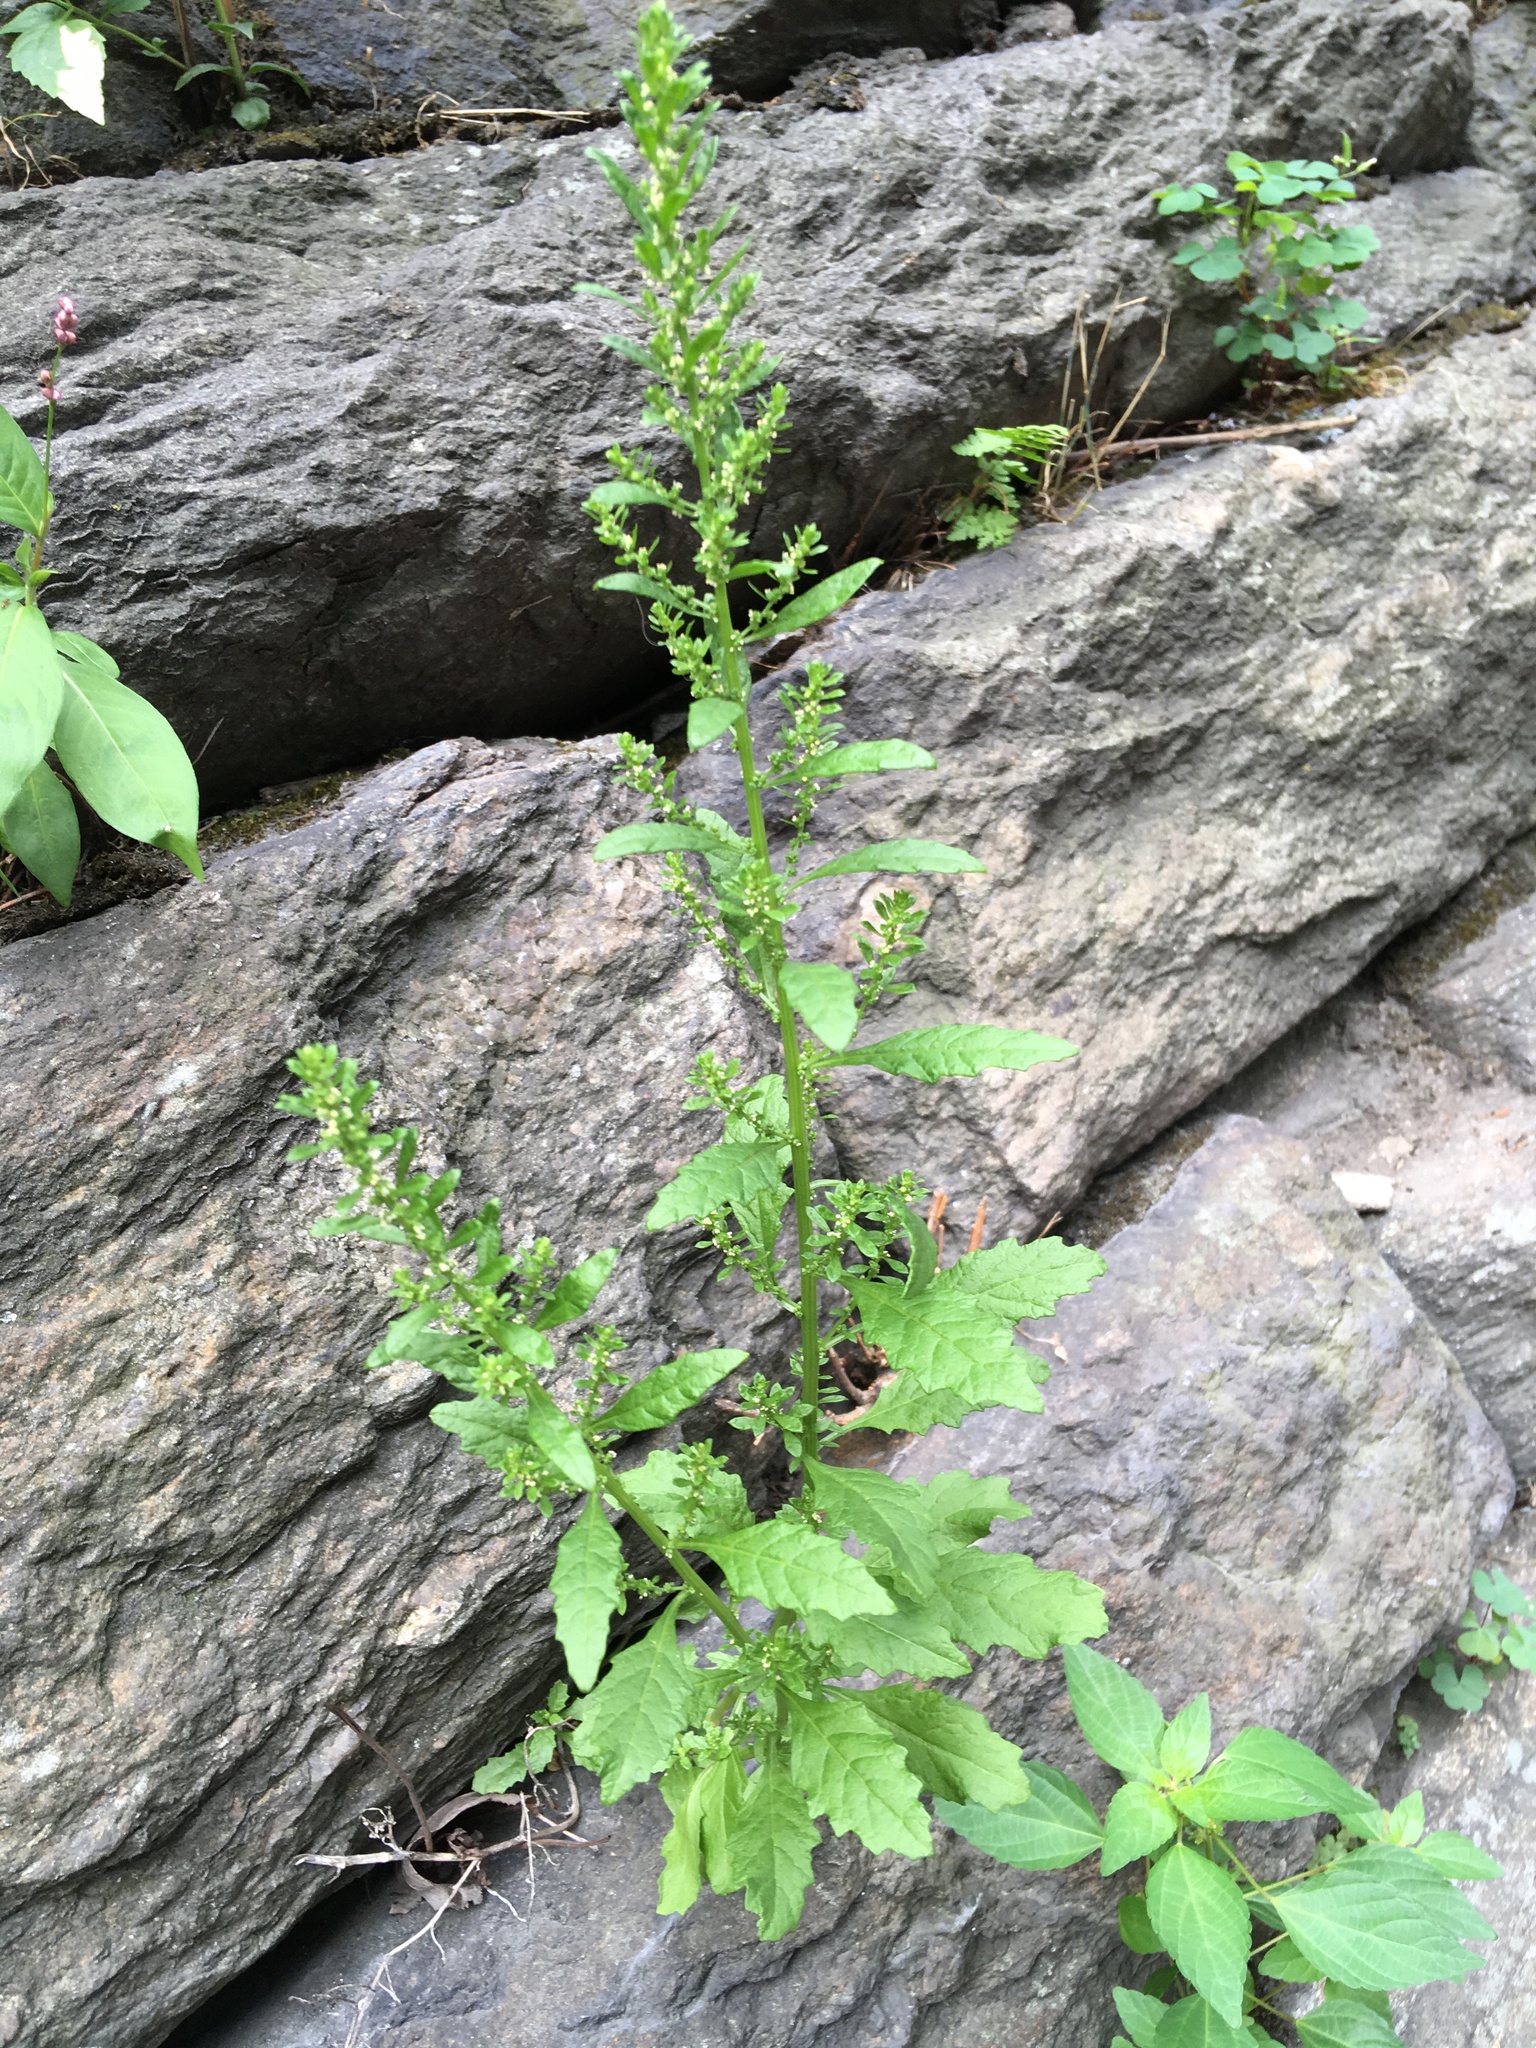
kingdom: Plantae
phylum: Tracheophyta
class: Magnoliopsida
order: Caryophyllales
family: Amaranthaceae
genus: Dysphania
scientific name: Dysphania ambrosioides
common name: Wormseed
